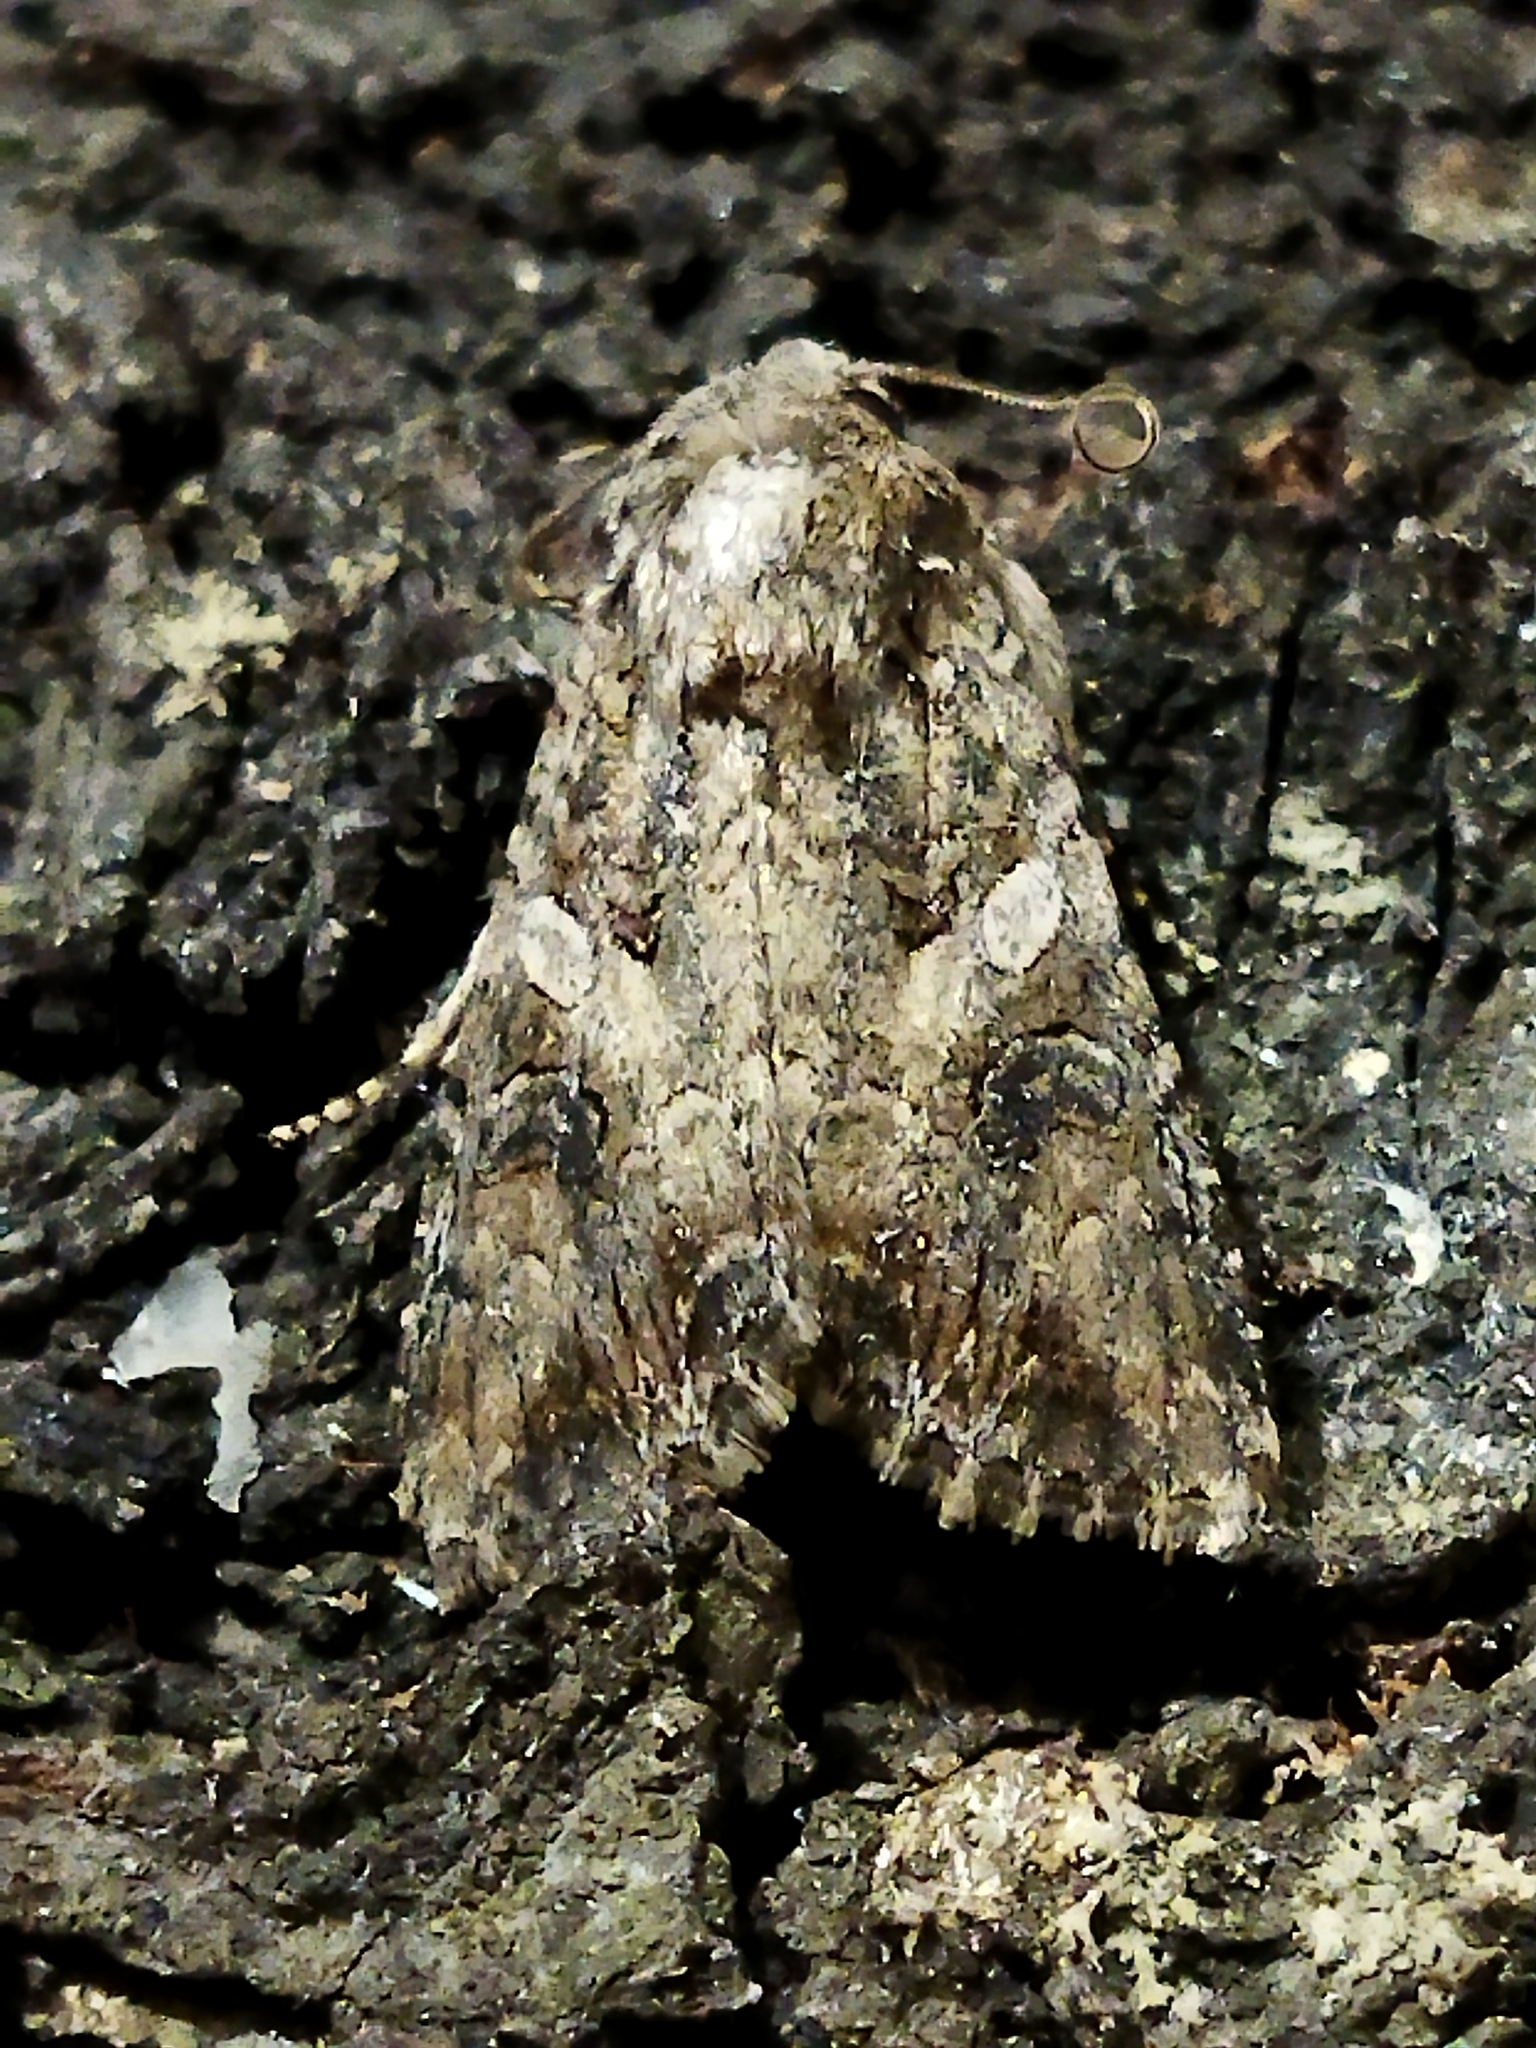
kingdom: Animalia
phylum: Arthropoda
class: Insecta
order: Lepidoptera
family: Noctuidae
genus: Anarta
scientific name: Anarta trifolii
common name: Clover cutworm moth
